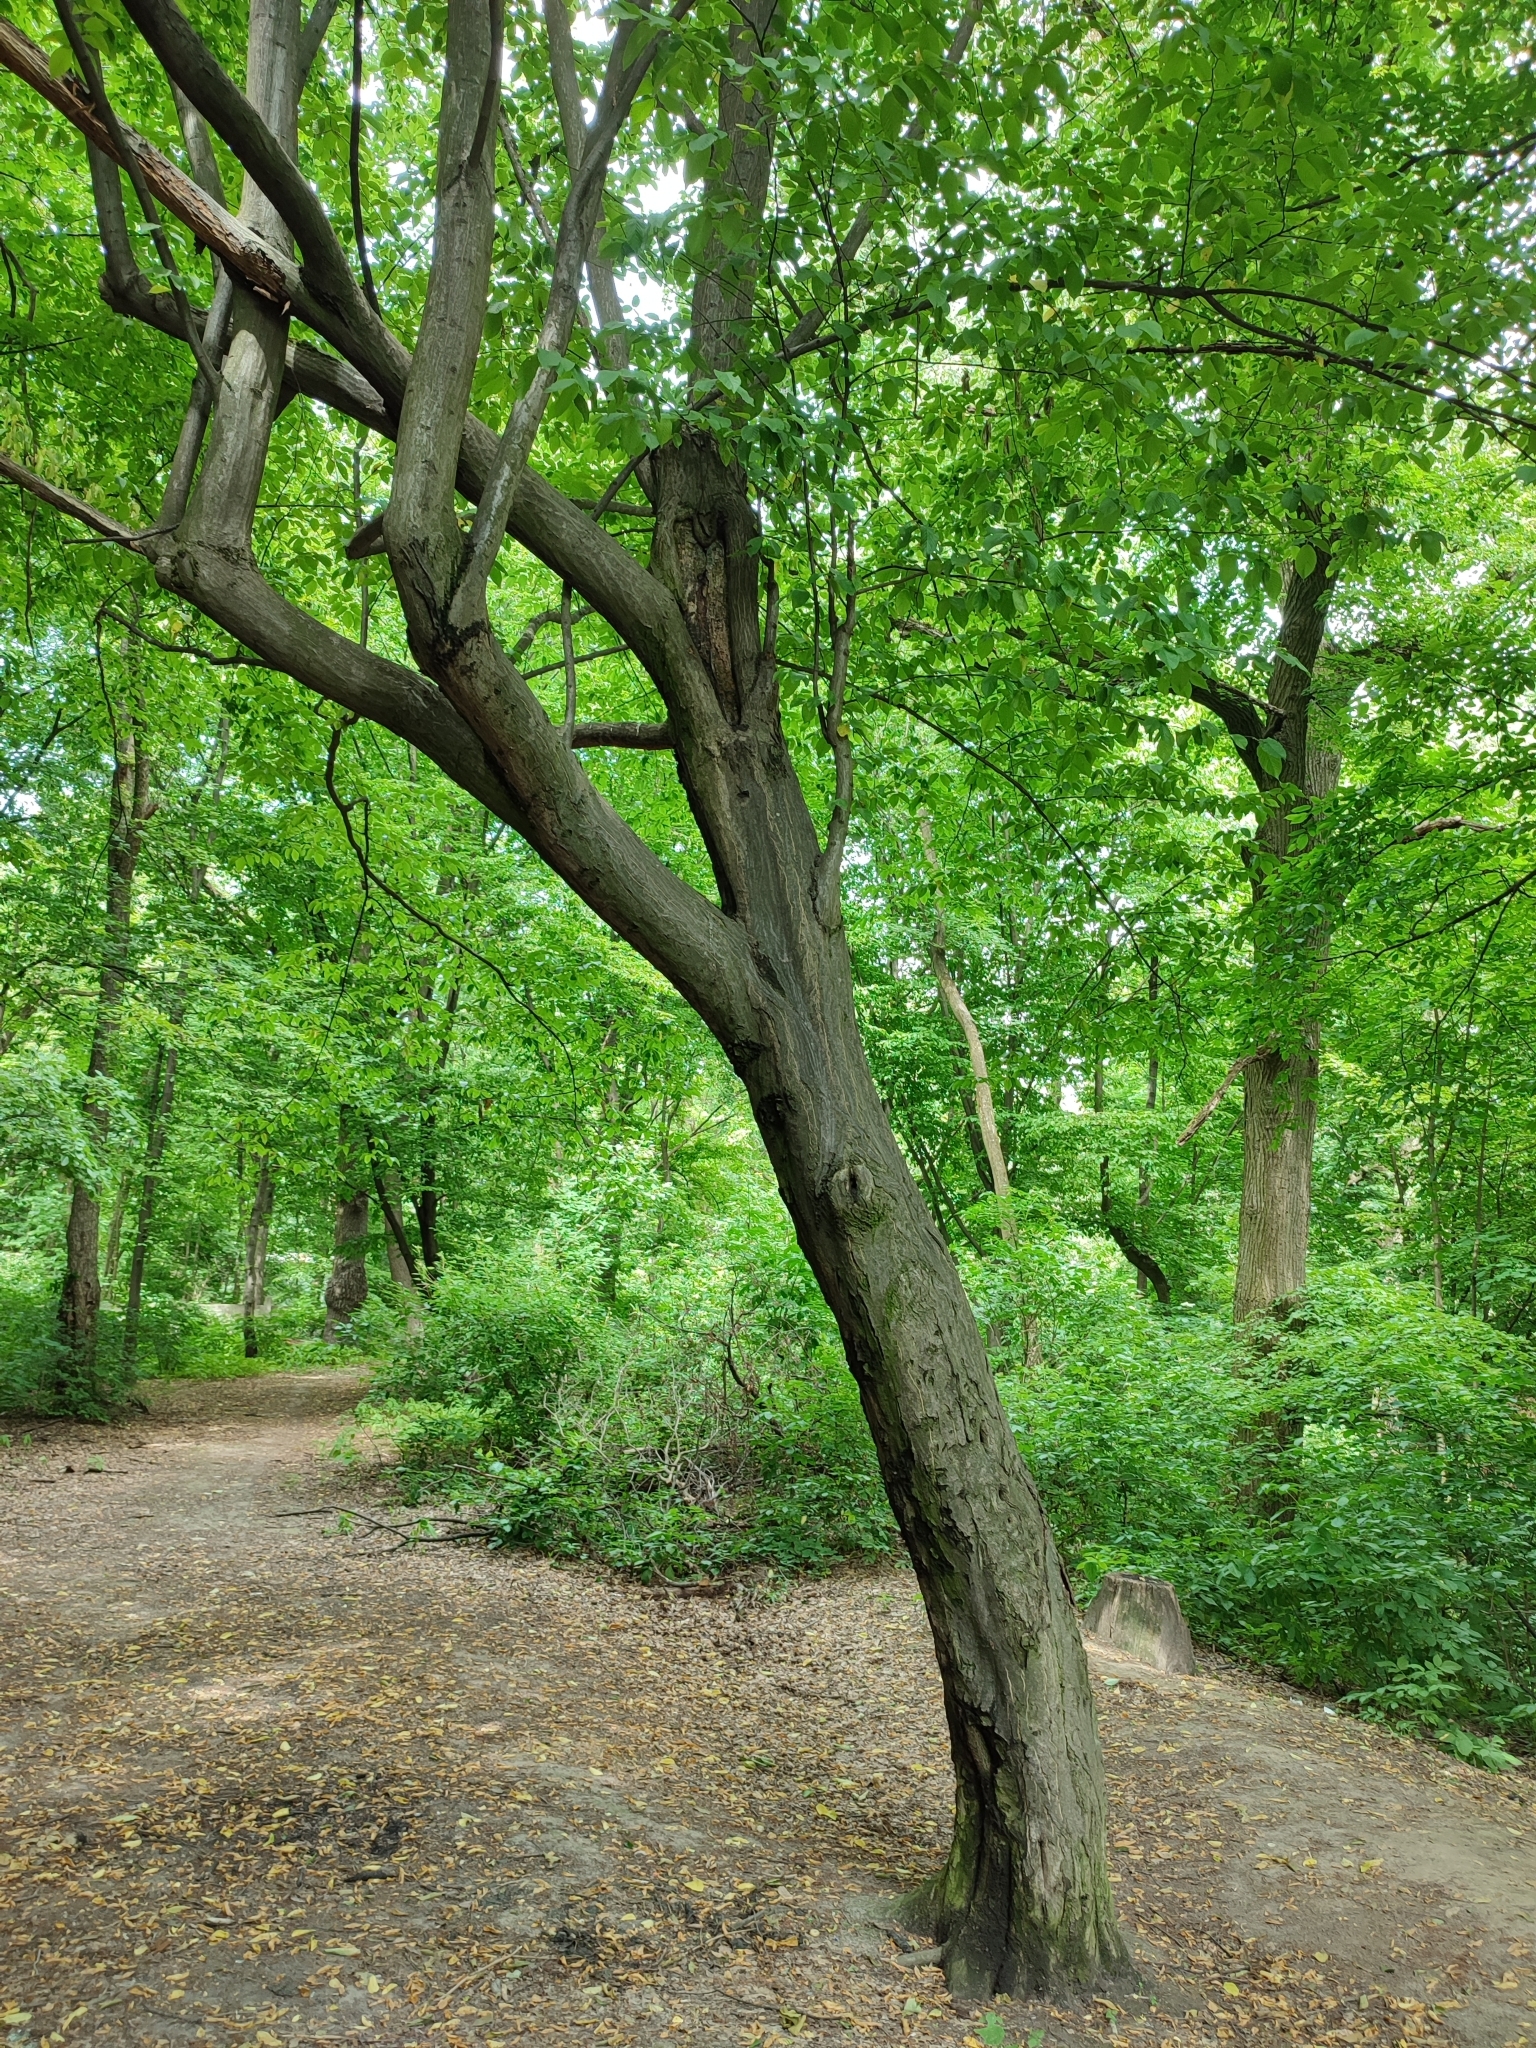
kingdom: Plantae
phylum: Tracheophyta
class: Magnoliopsida
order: Fagales
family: Betulaceae
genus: Carpinus
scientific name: Carpinus betulus
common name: Hornbeam
